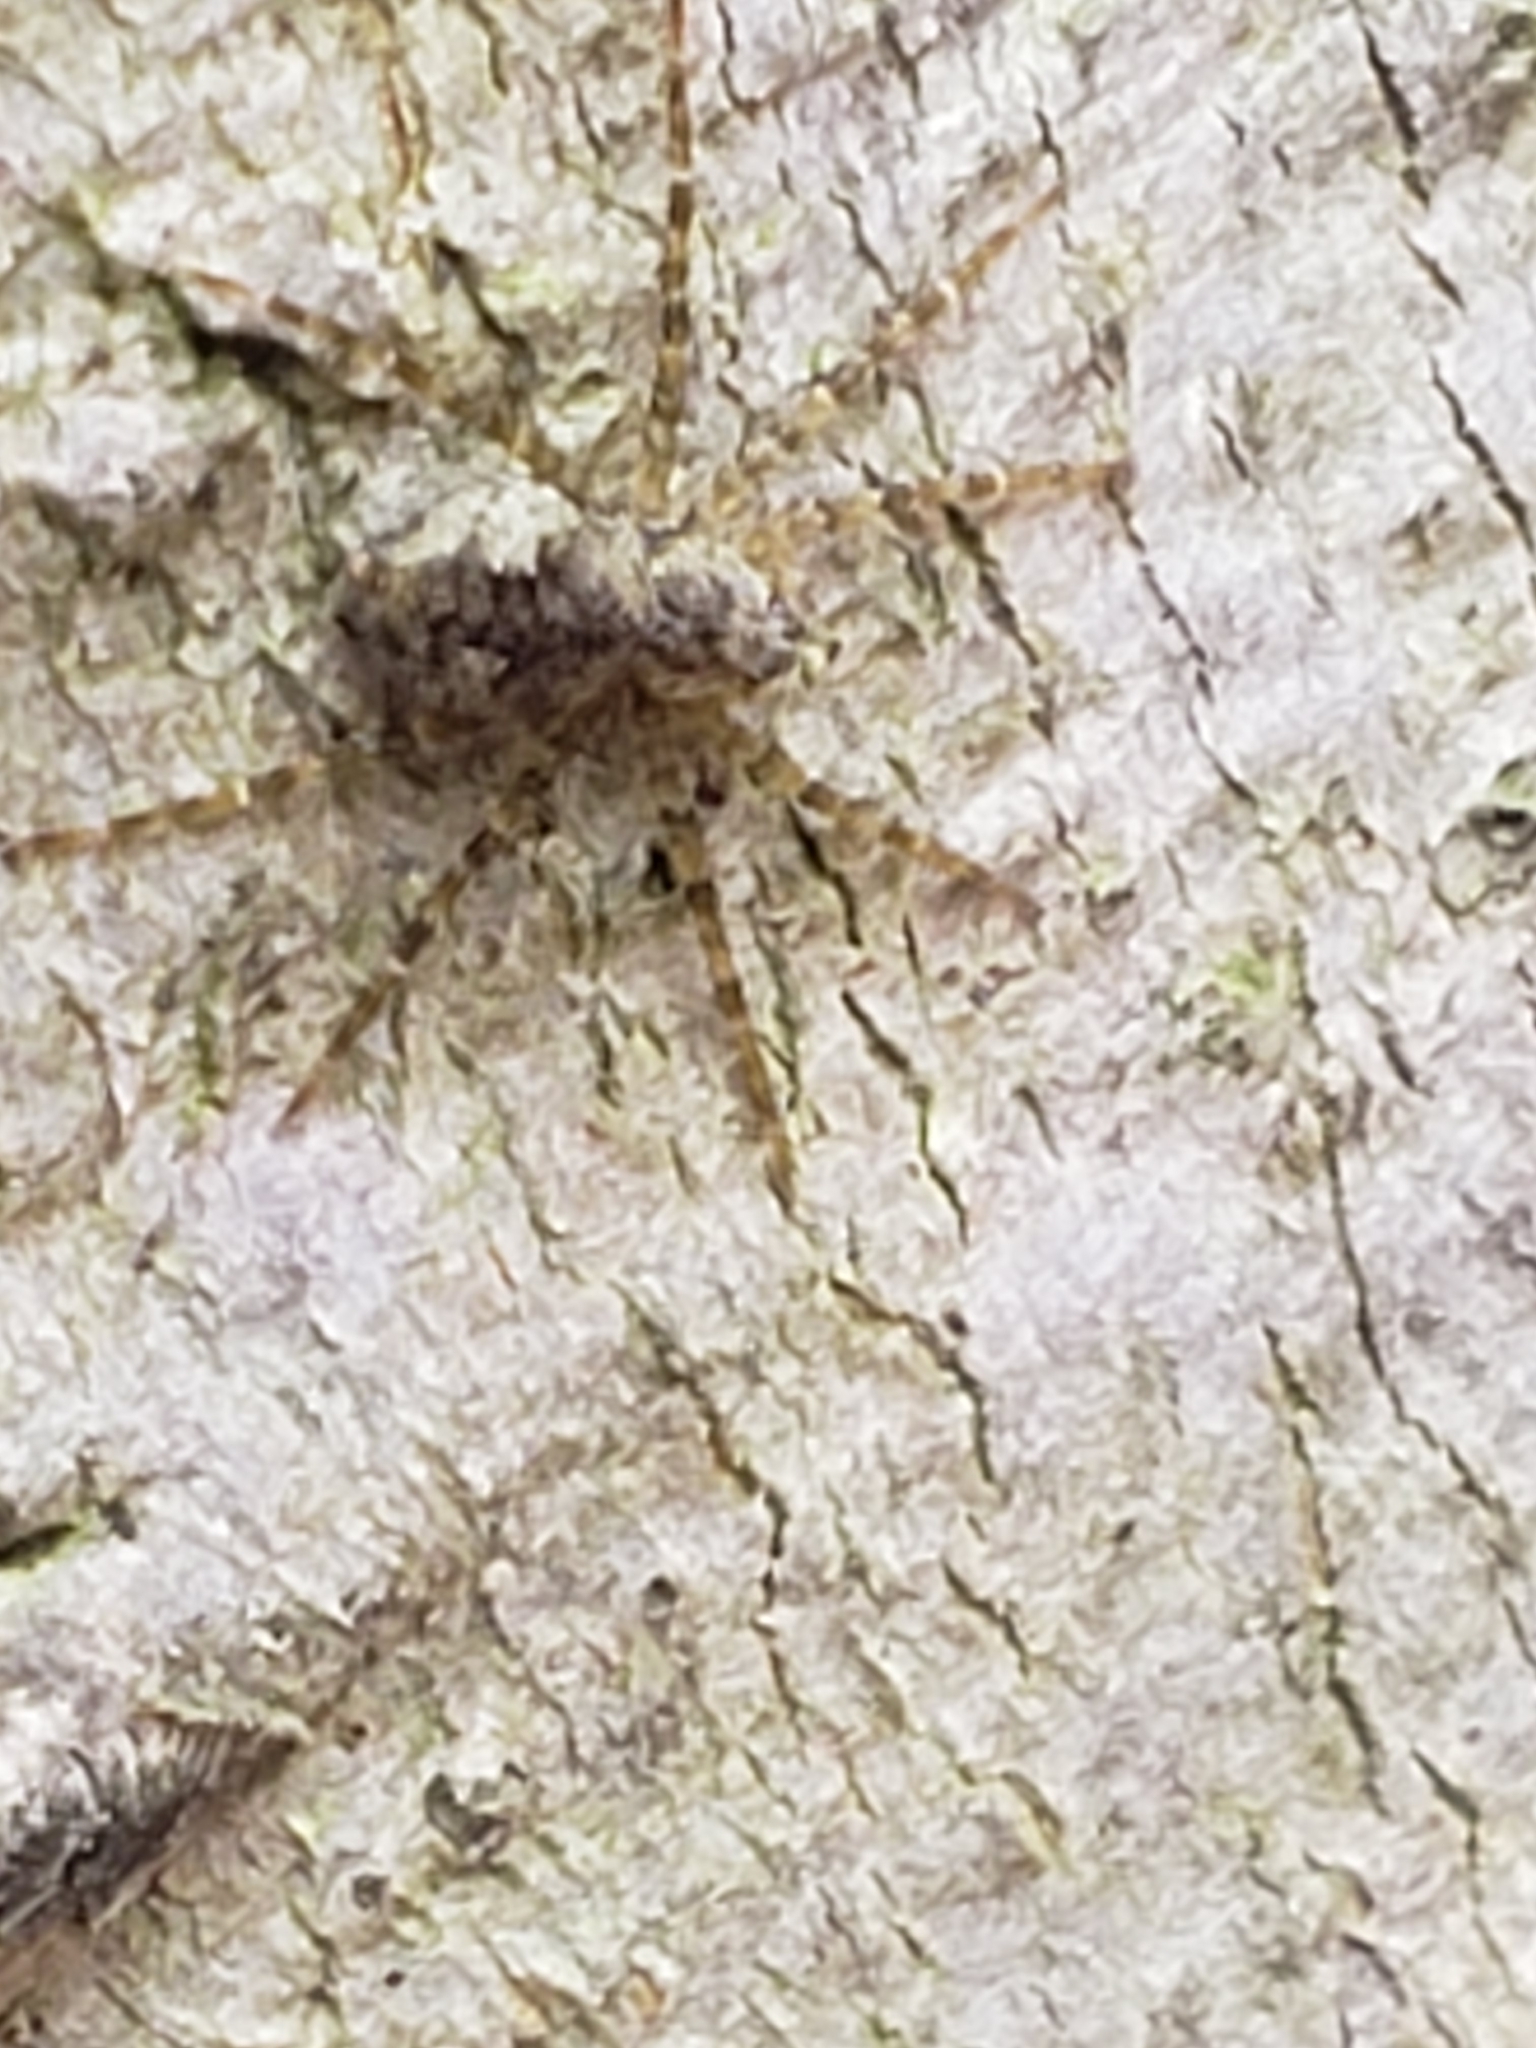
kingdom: Animalia
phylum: Arthropoda
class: Arachnida
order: Araneae
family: Pisauridae
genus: Dolomedes
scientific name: Dolomedes albineus
